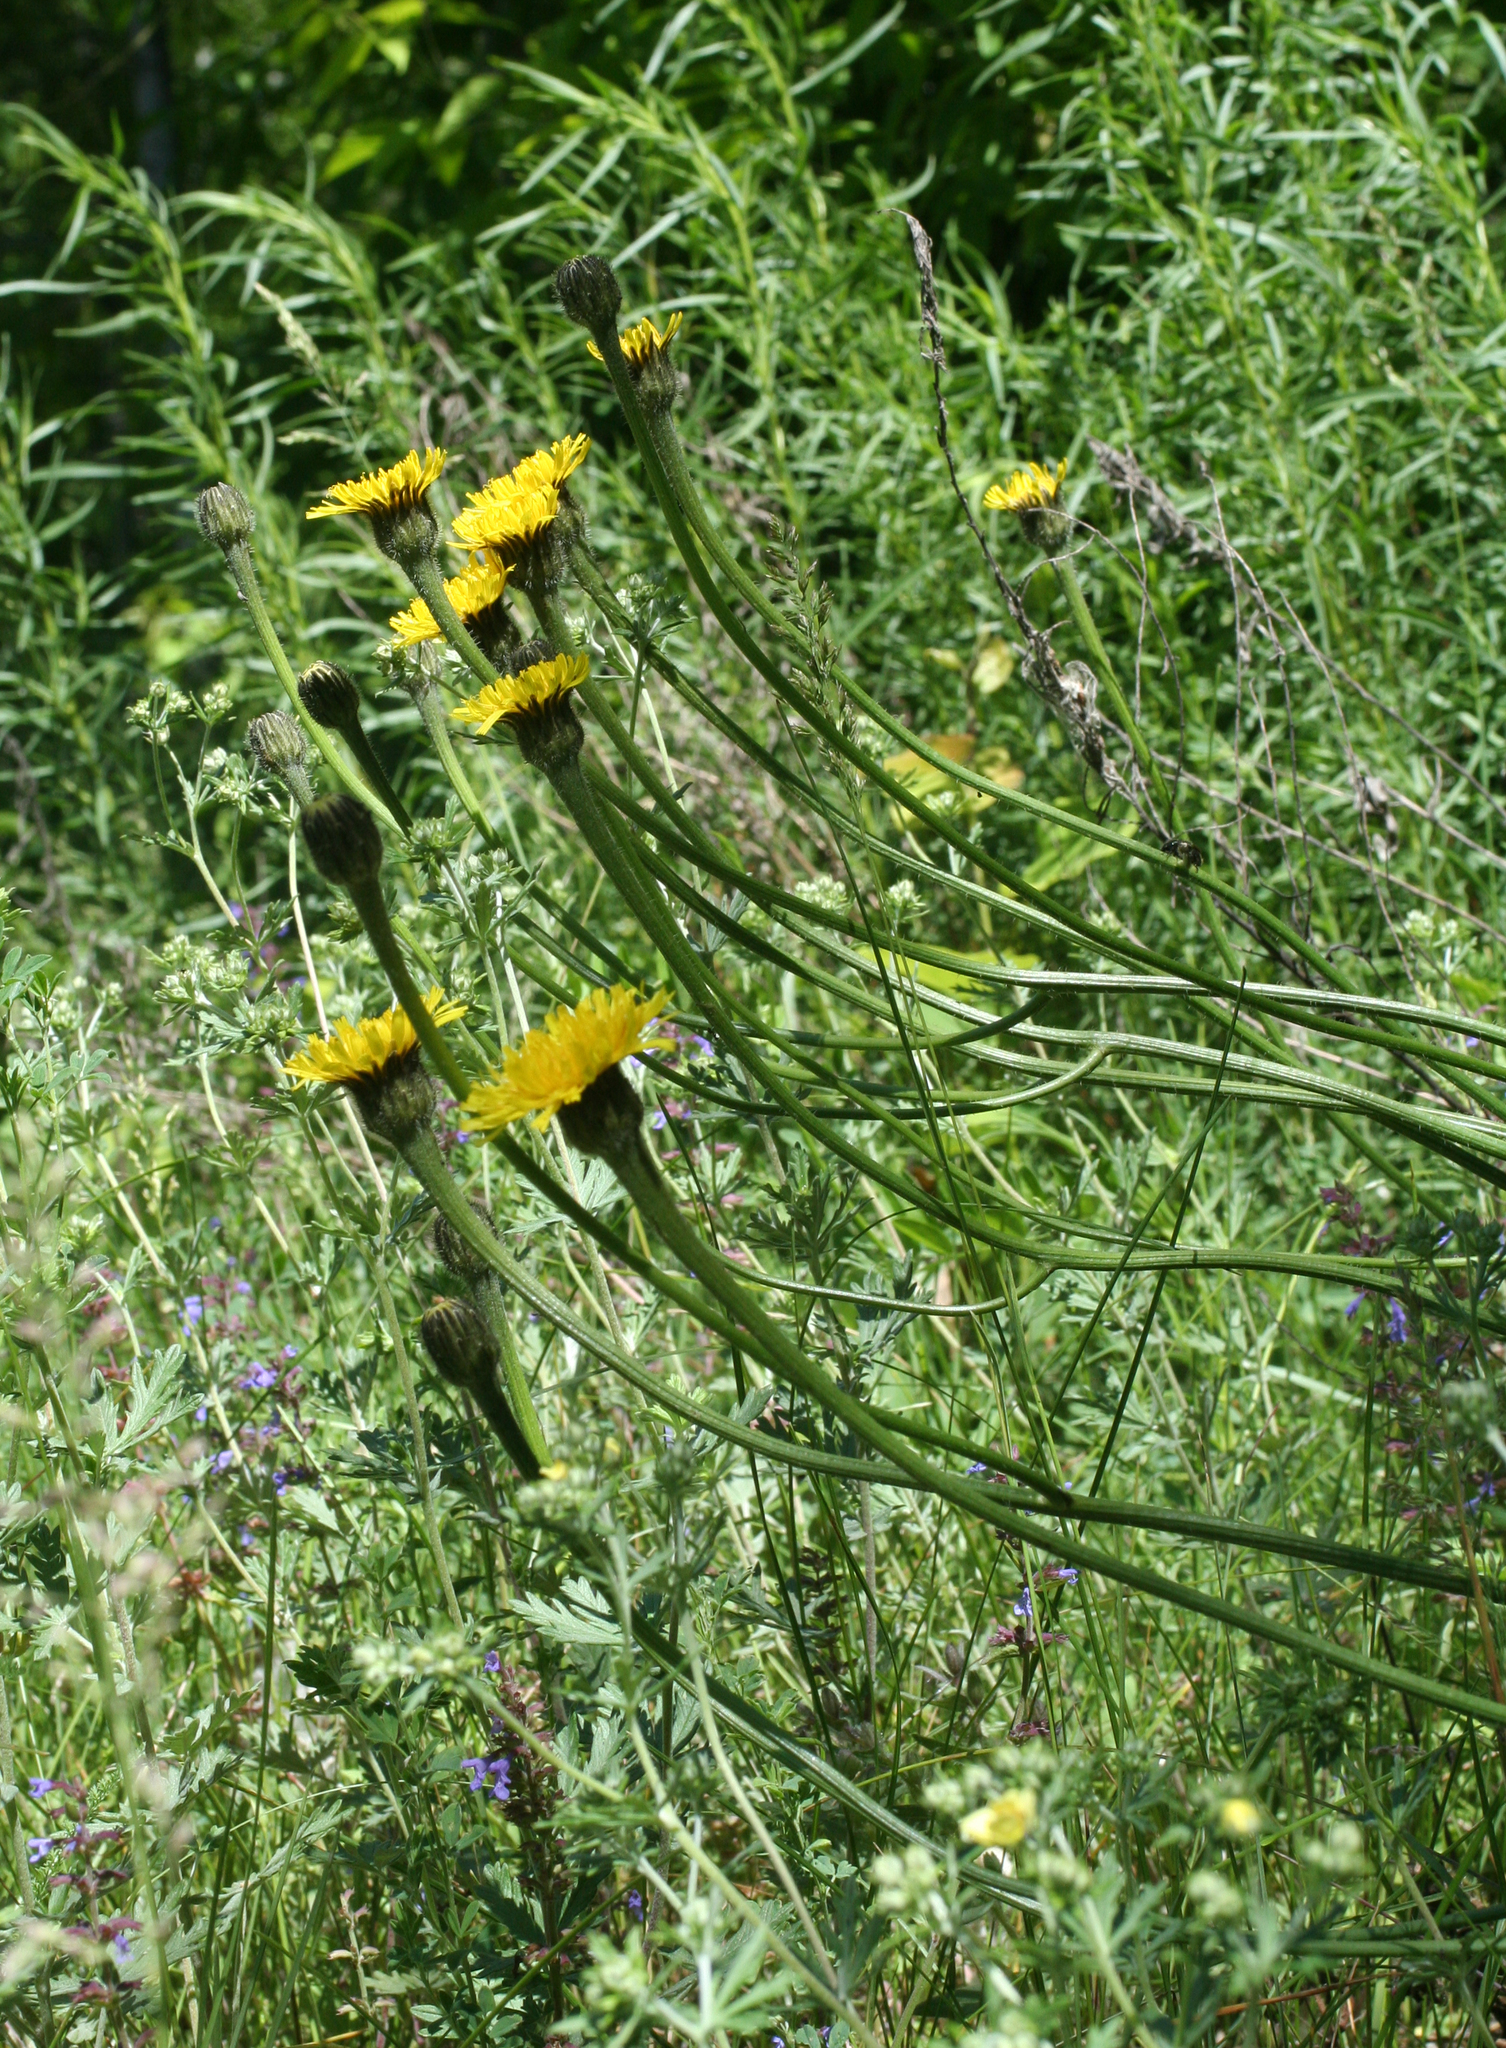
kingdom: Plantae
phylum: Tracheophyta
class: Magnoliopsida
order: Asterales
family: Asteraceae
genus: Trommsdorffia
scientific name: Trommsdorffia maculata
